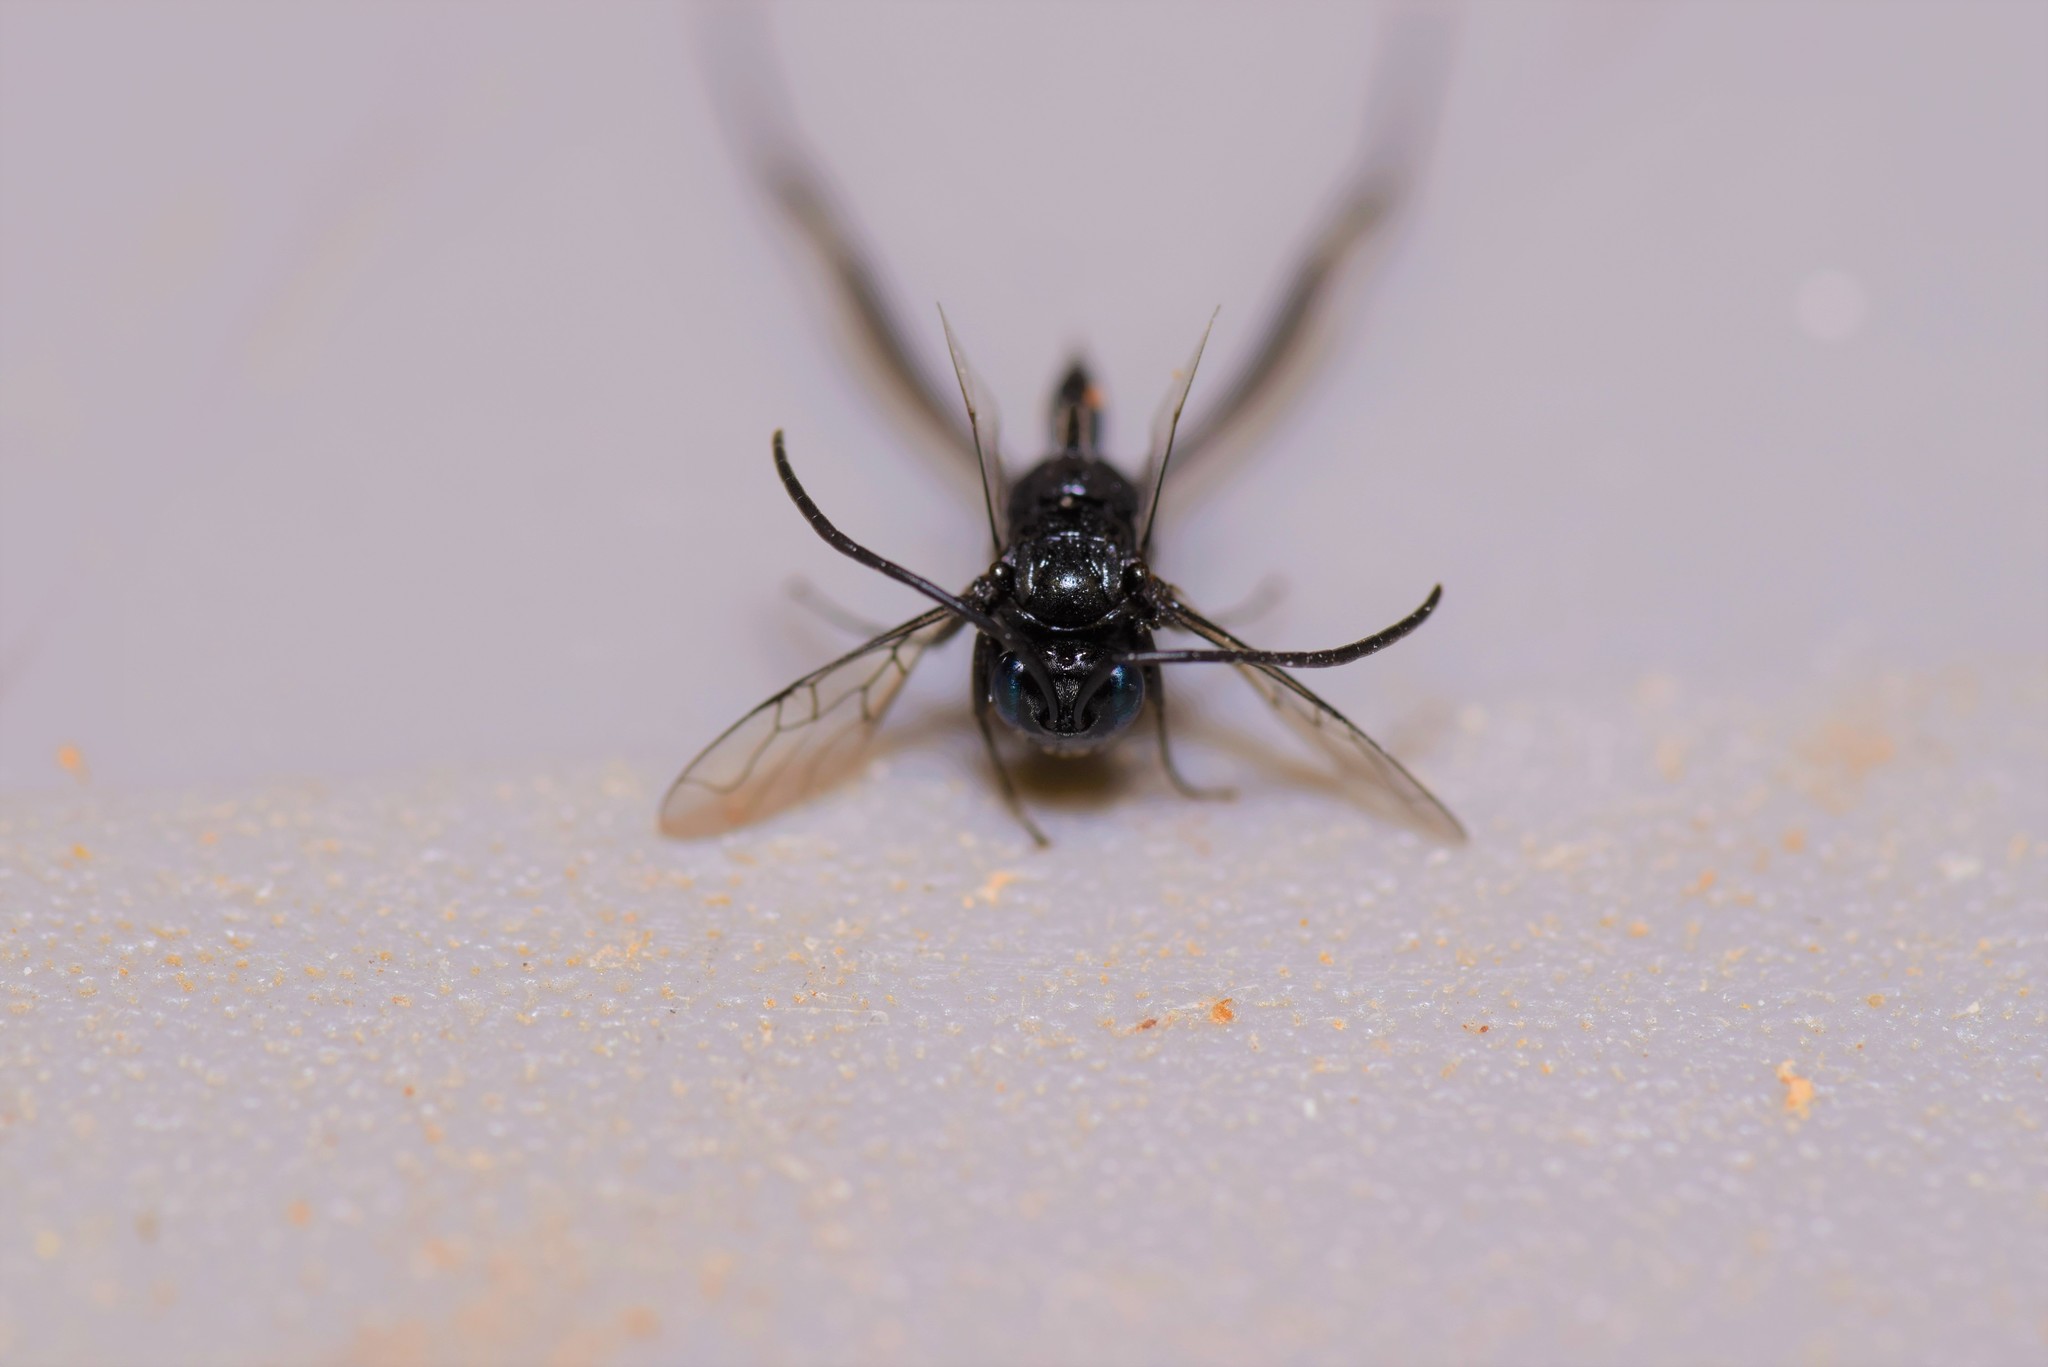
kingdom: Animalia
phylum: Arthropoda
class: Insecta
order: Hymenoptera
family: Evaniidae
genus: Evania
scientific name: Evania appendigaster
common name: Ensign wasp
